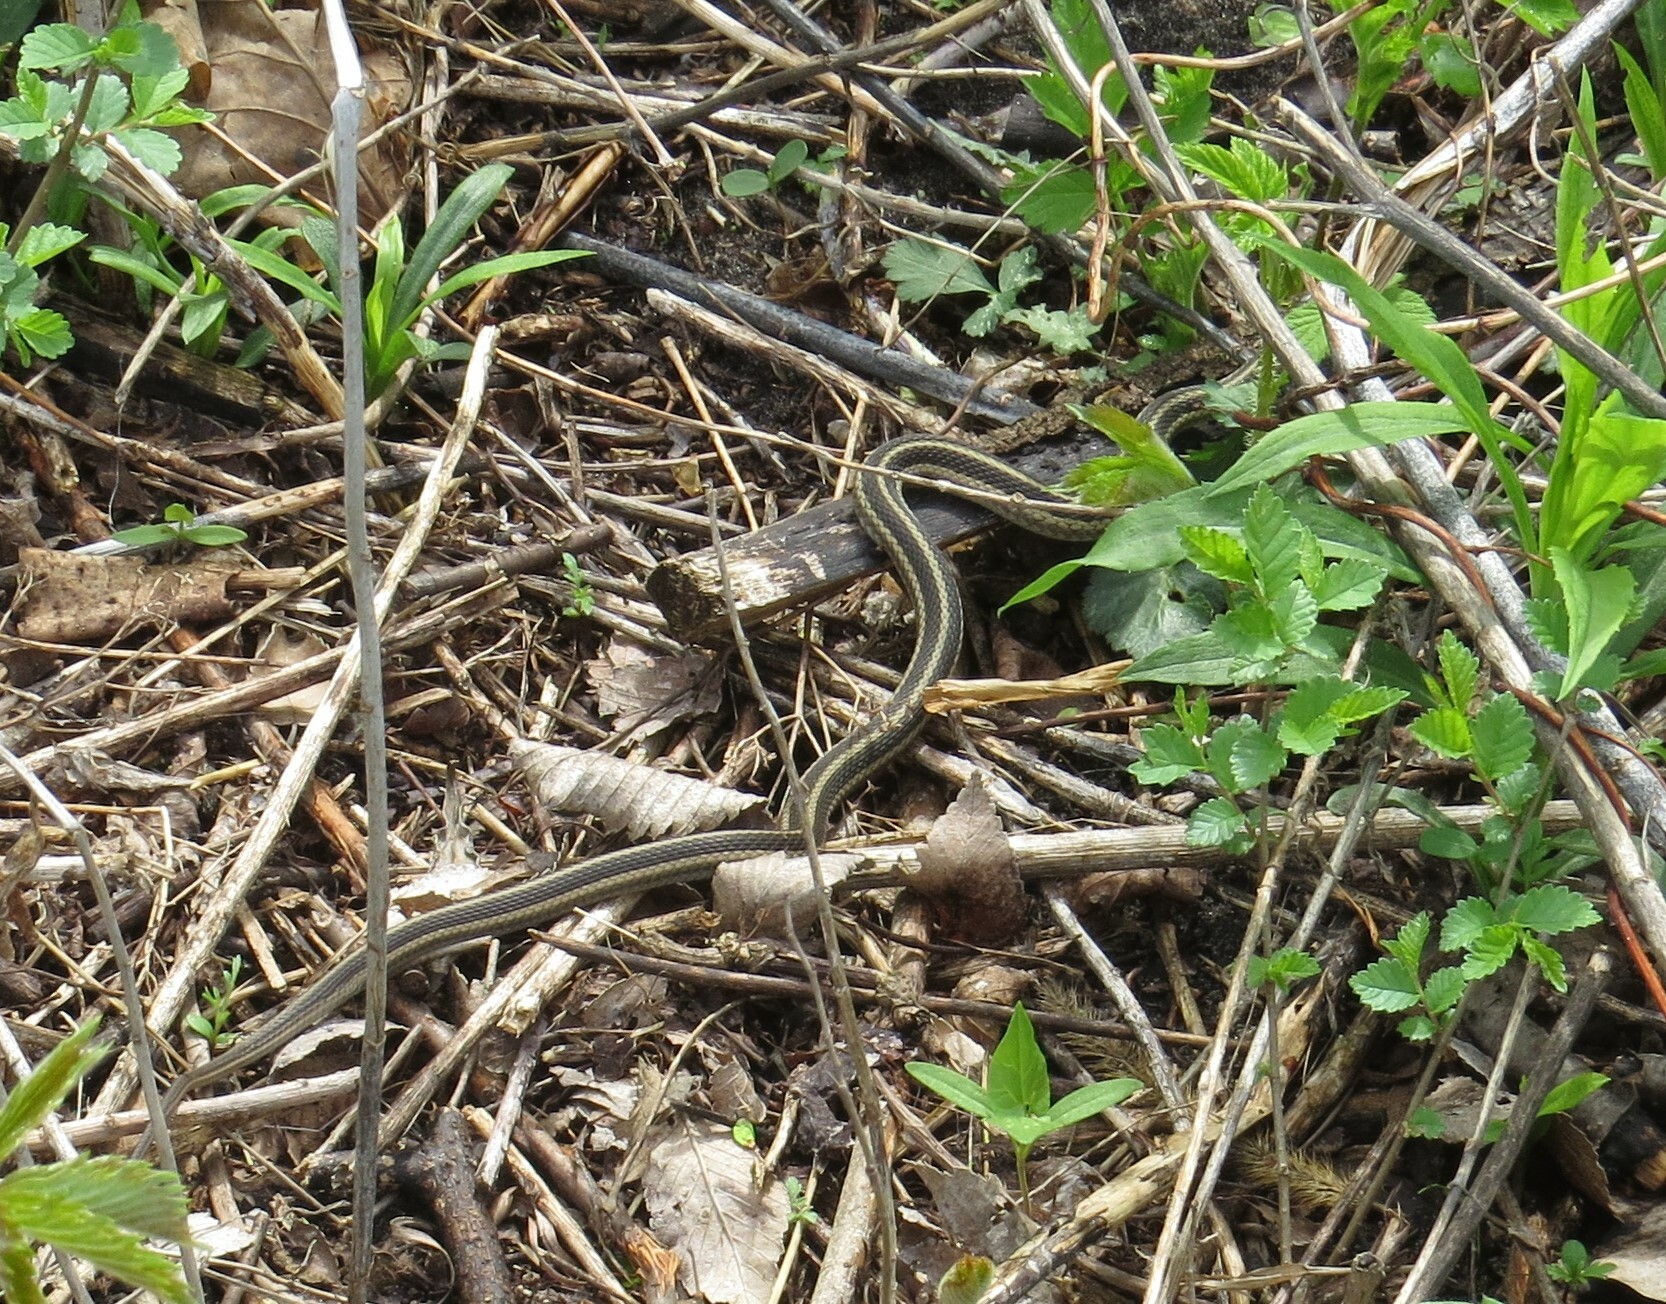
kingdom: Animalia
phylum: Chordata
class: Squamata
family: Colubridae
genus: Thamnophis
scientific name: Thamnophis sirtalis
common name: Common garter snake
